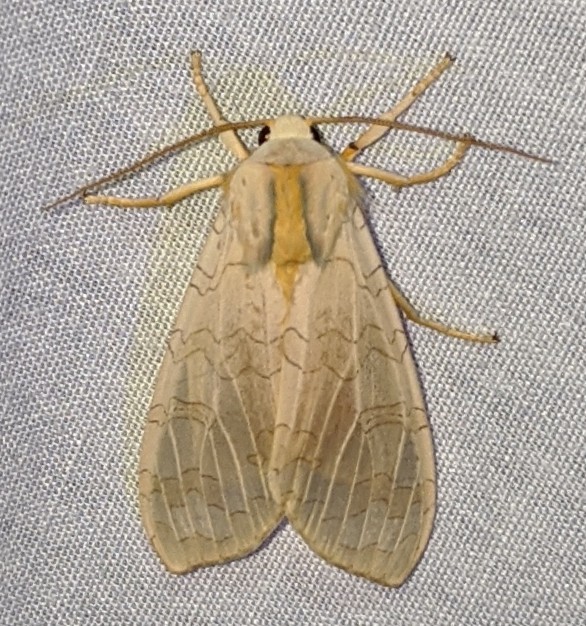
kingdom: Animalia
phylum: Arthropoda
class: Insecta
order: Lepidoptera
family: Erebidae
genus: Halysidota
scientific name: Halysidota tessellaris
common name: Banded tussock moth
